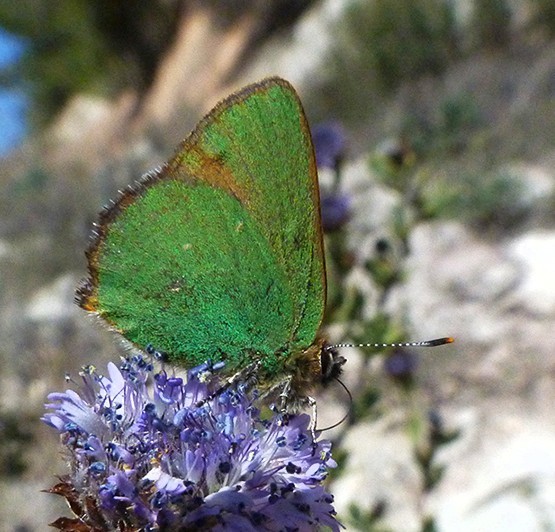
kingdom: Animalia
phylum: Arthropoda
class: Insecta
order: Lepidoptera
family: Lycaenidae
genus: Callophrys
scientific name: Callophrys rubi
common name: Green hairstreak
